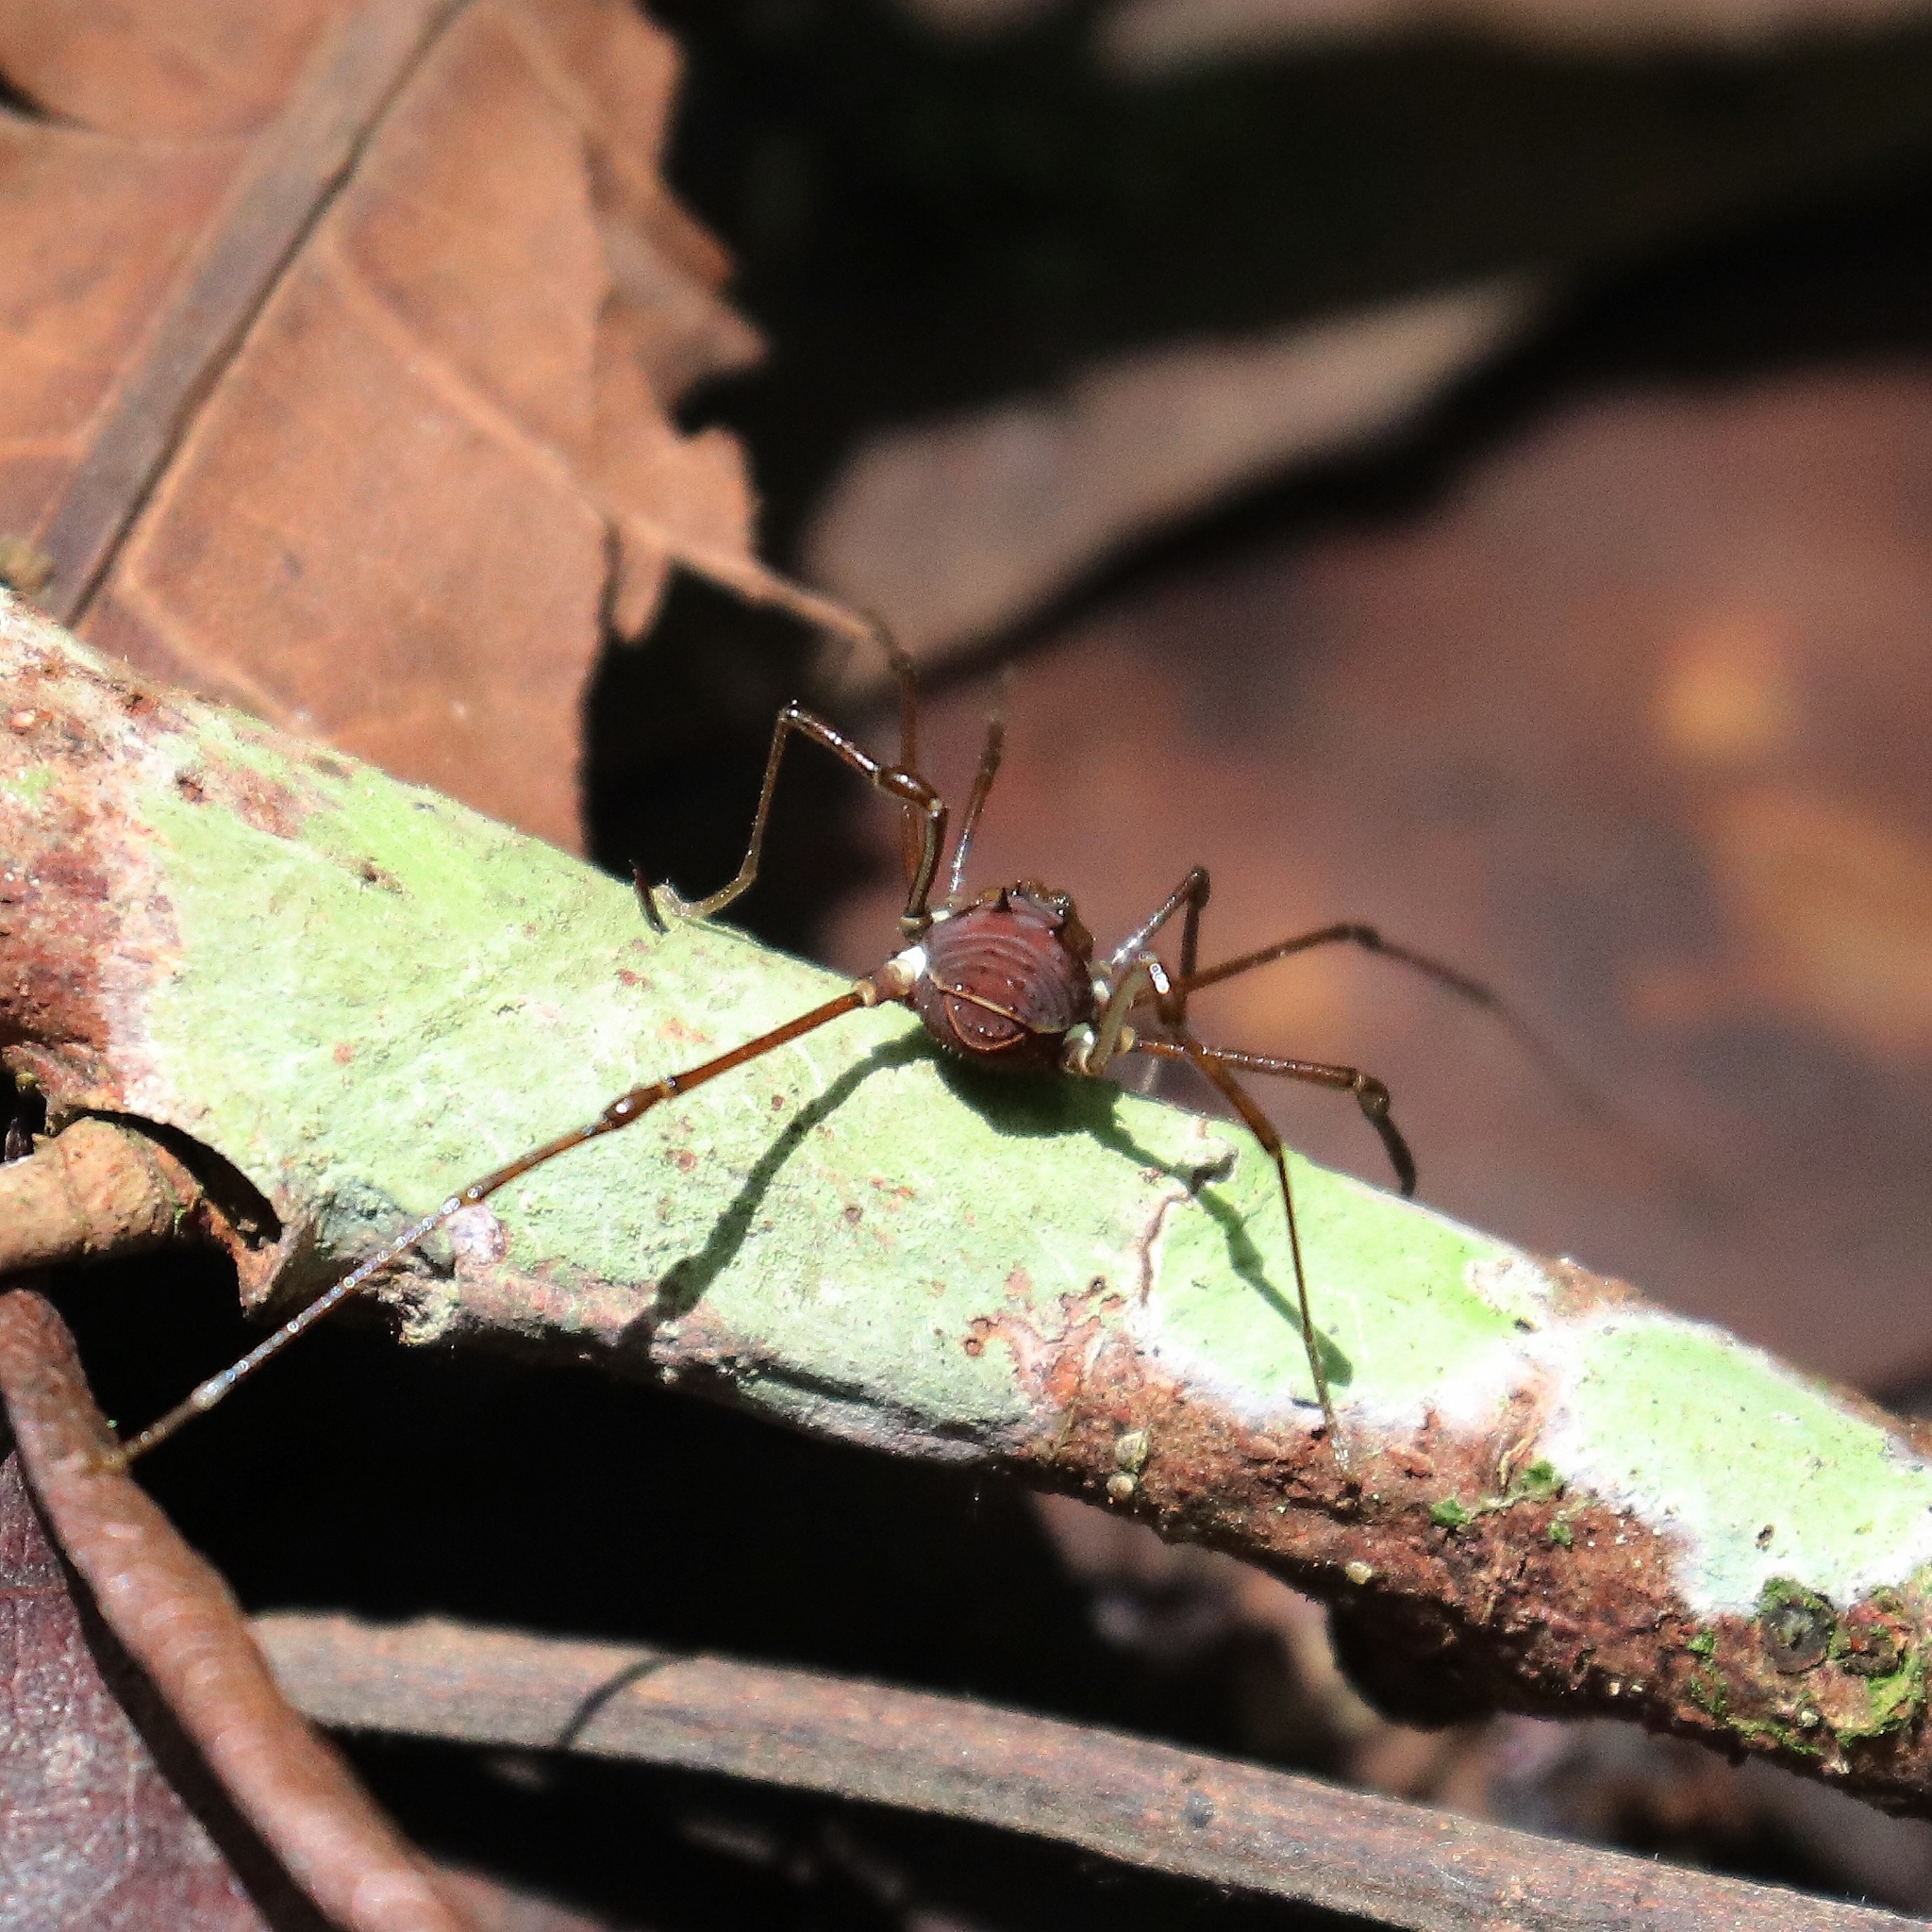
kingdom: Animalia
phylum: Arthropoda
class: Arachnida
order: Opiliones
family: Manaosbiidae
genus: Barrona
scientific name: Barrona williamsi
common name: Harvestmen
